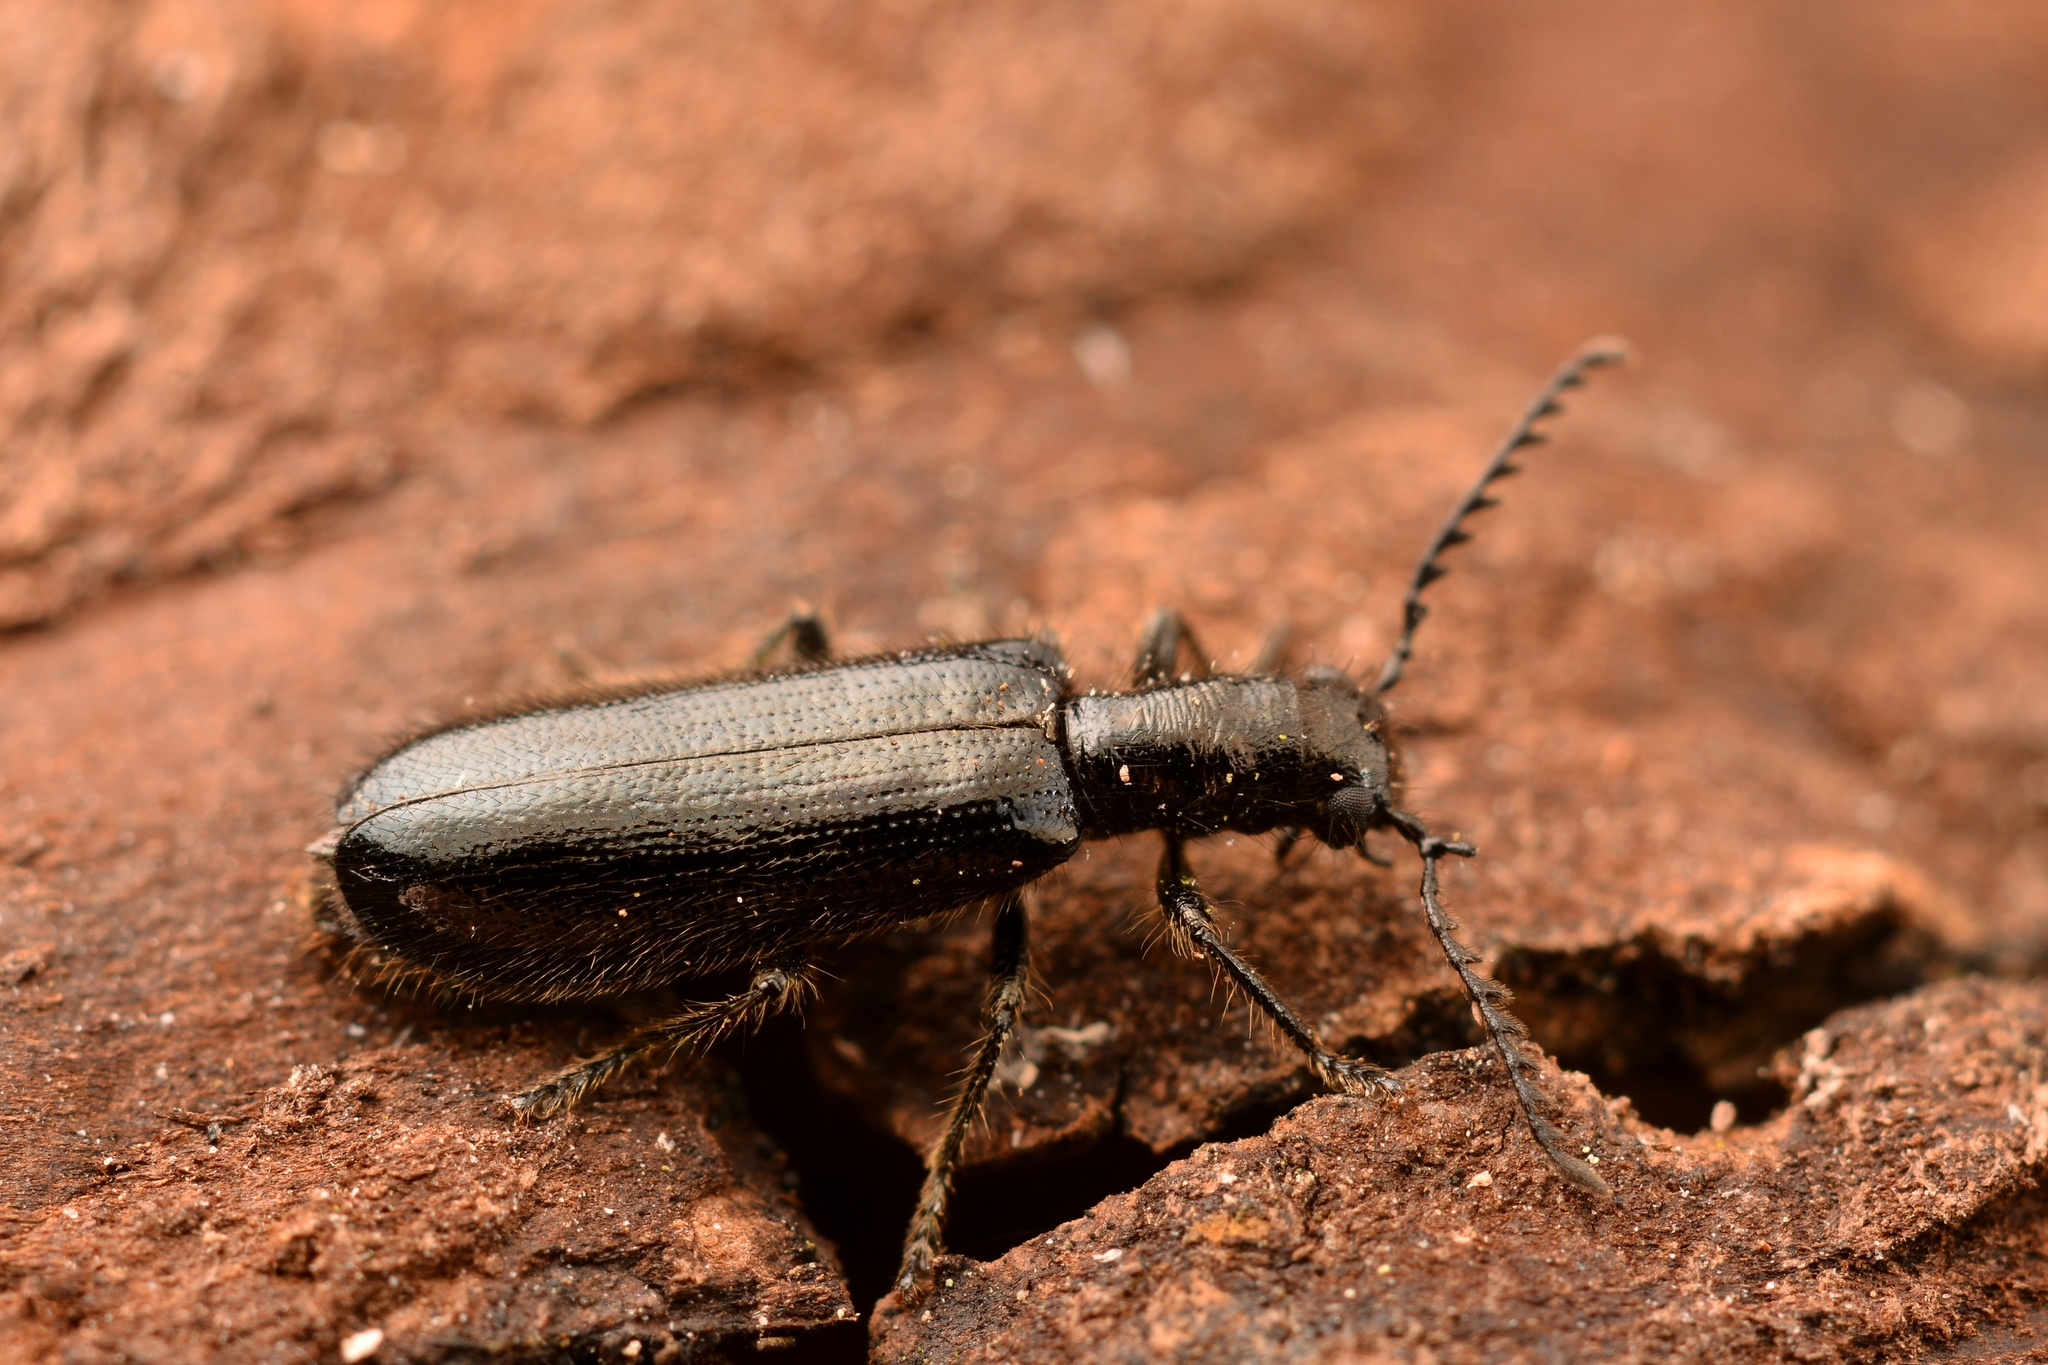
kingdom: Animalia
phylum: Arthropoda
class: Insecta
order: Coleoptera
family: Cleridae
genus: Tillus
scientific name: Tillus elongatus
